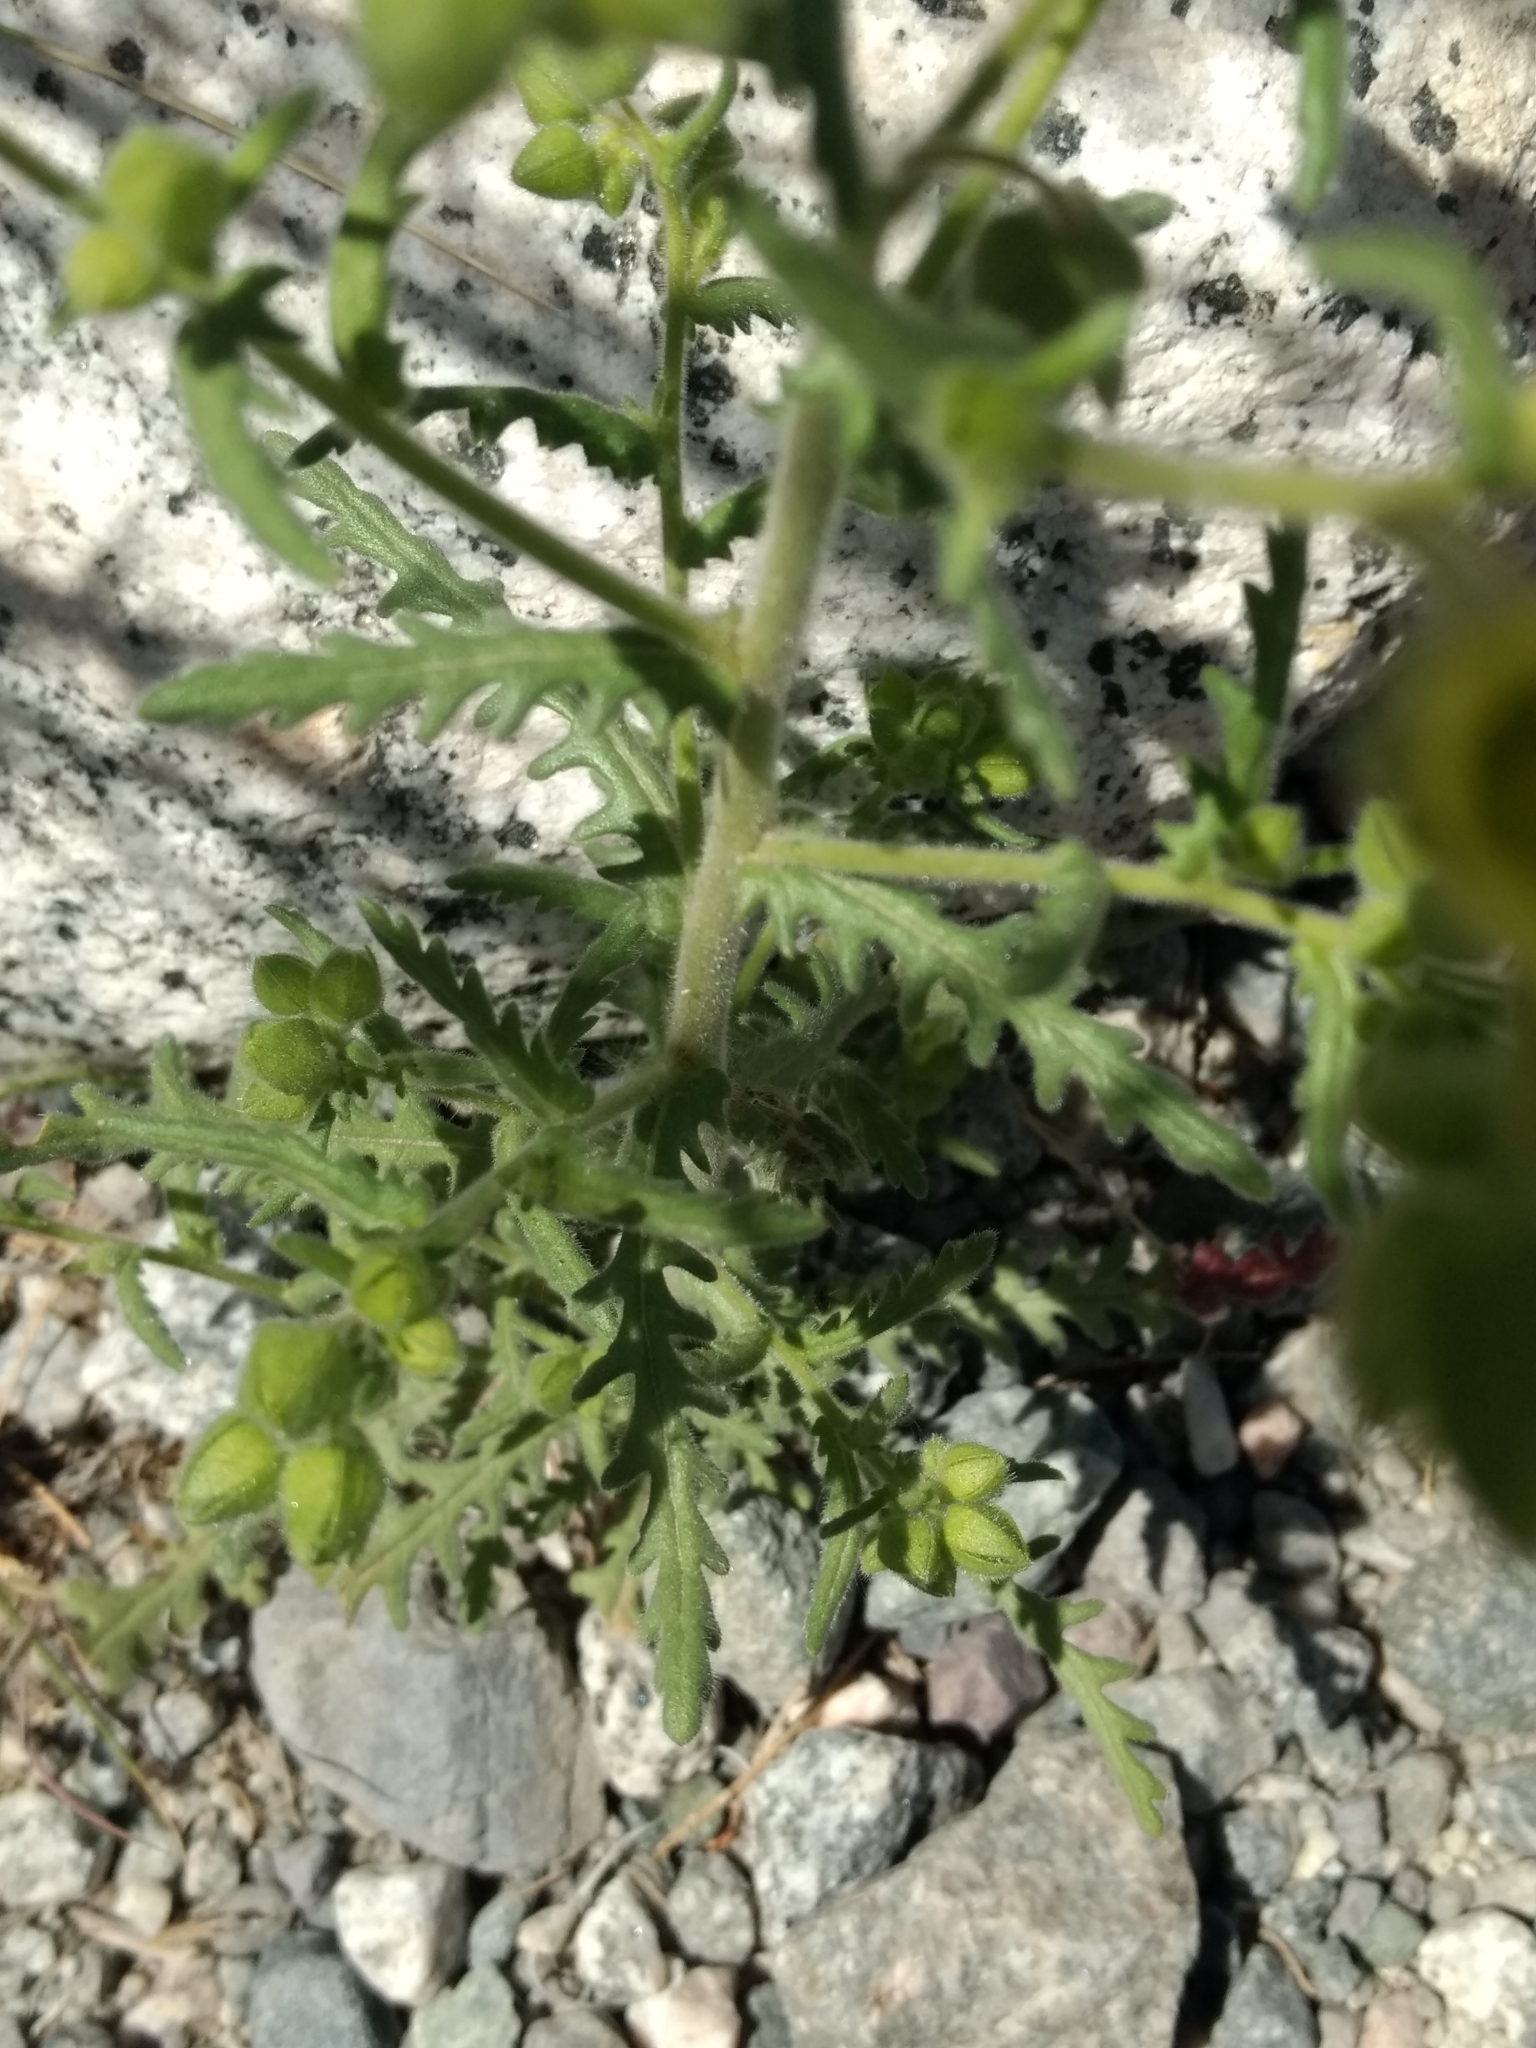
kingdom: Plantae
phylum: Tracheophyta
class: Magnoliopsida
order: Boraginales
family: Hydrophyllaceae
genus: Emmenanthe
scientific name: Emmenanthe penduliflora
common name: Whispering-bells
